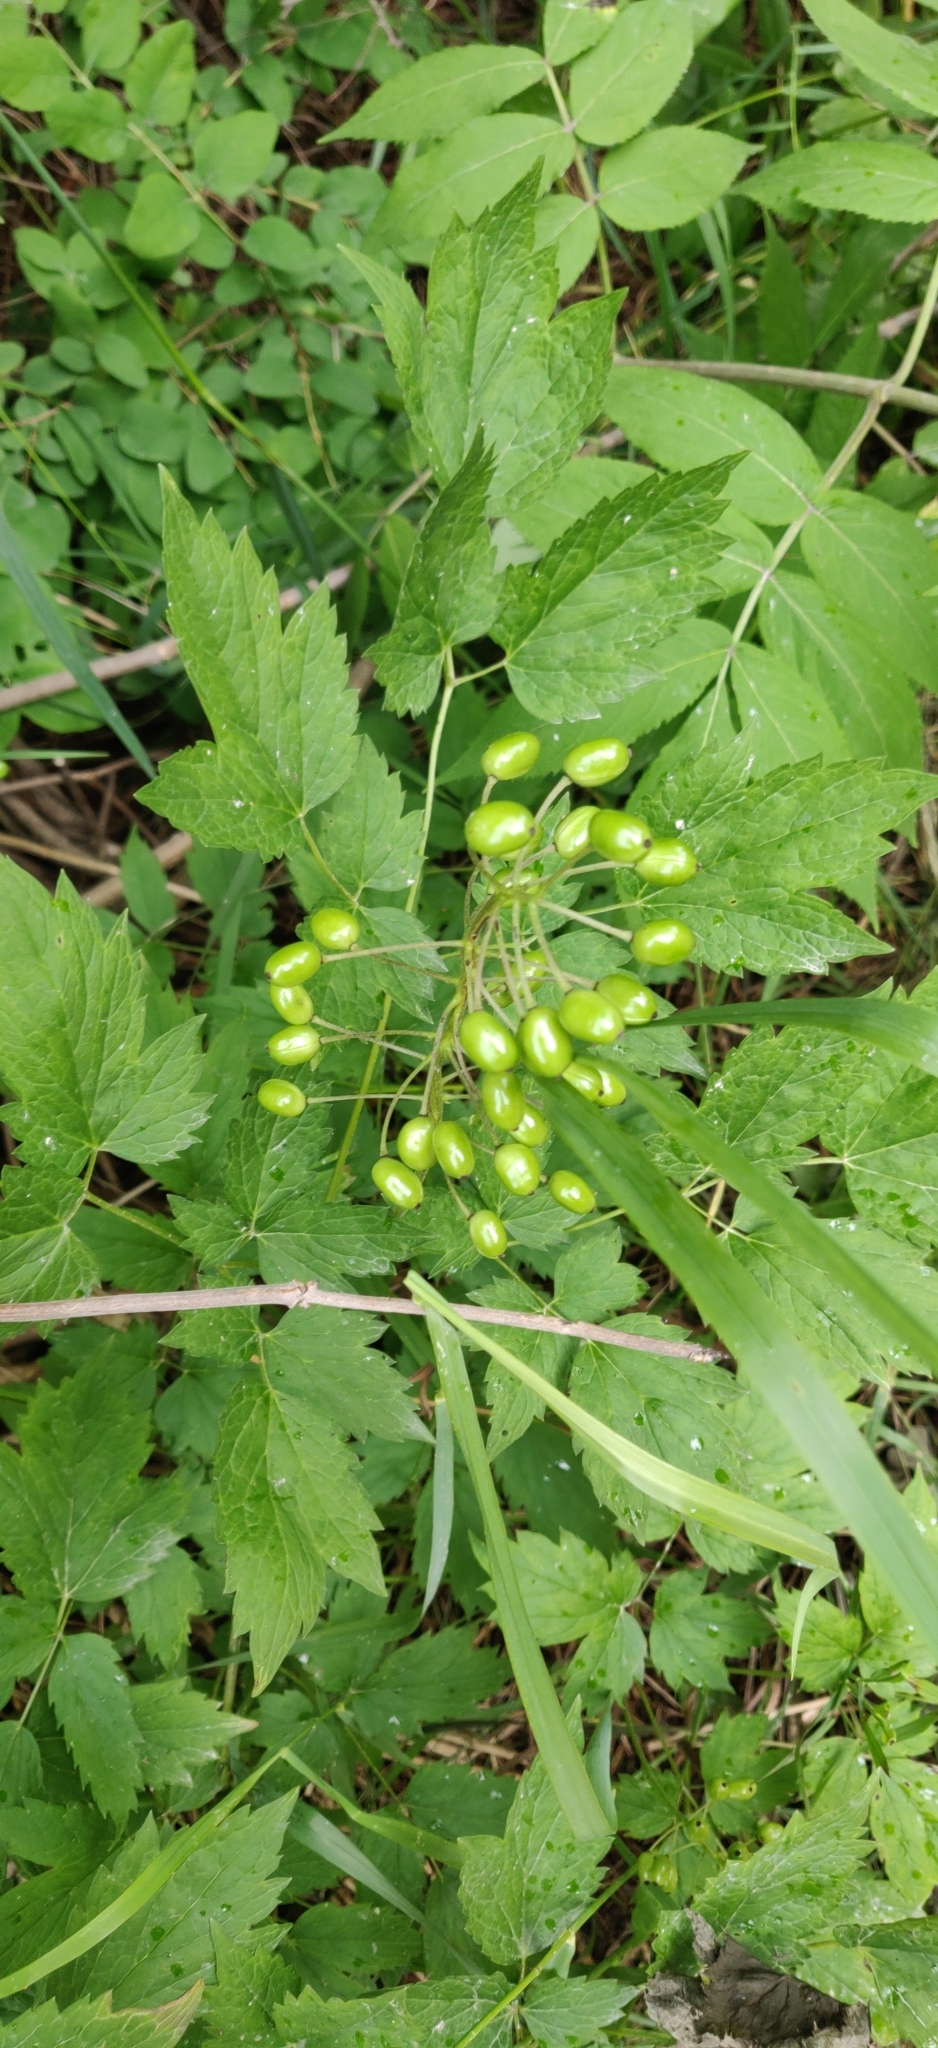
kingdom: Plantae
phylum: Tracheophyta
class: Magnoliopsida
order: Ranunculales
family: Ranunculaceae
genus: Actaea
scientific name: Actaea rubra
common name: Red baneberry
